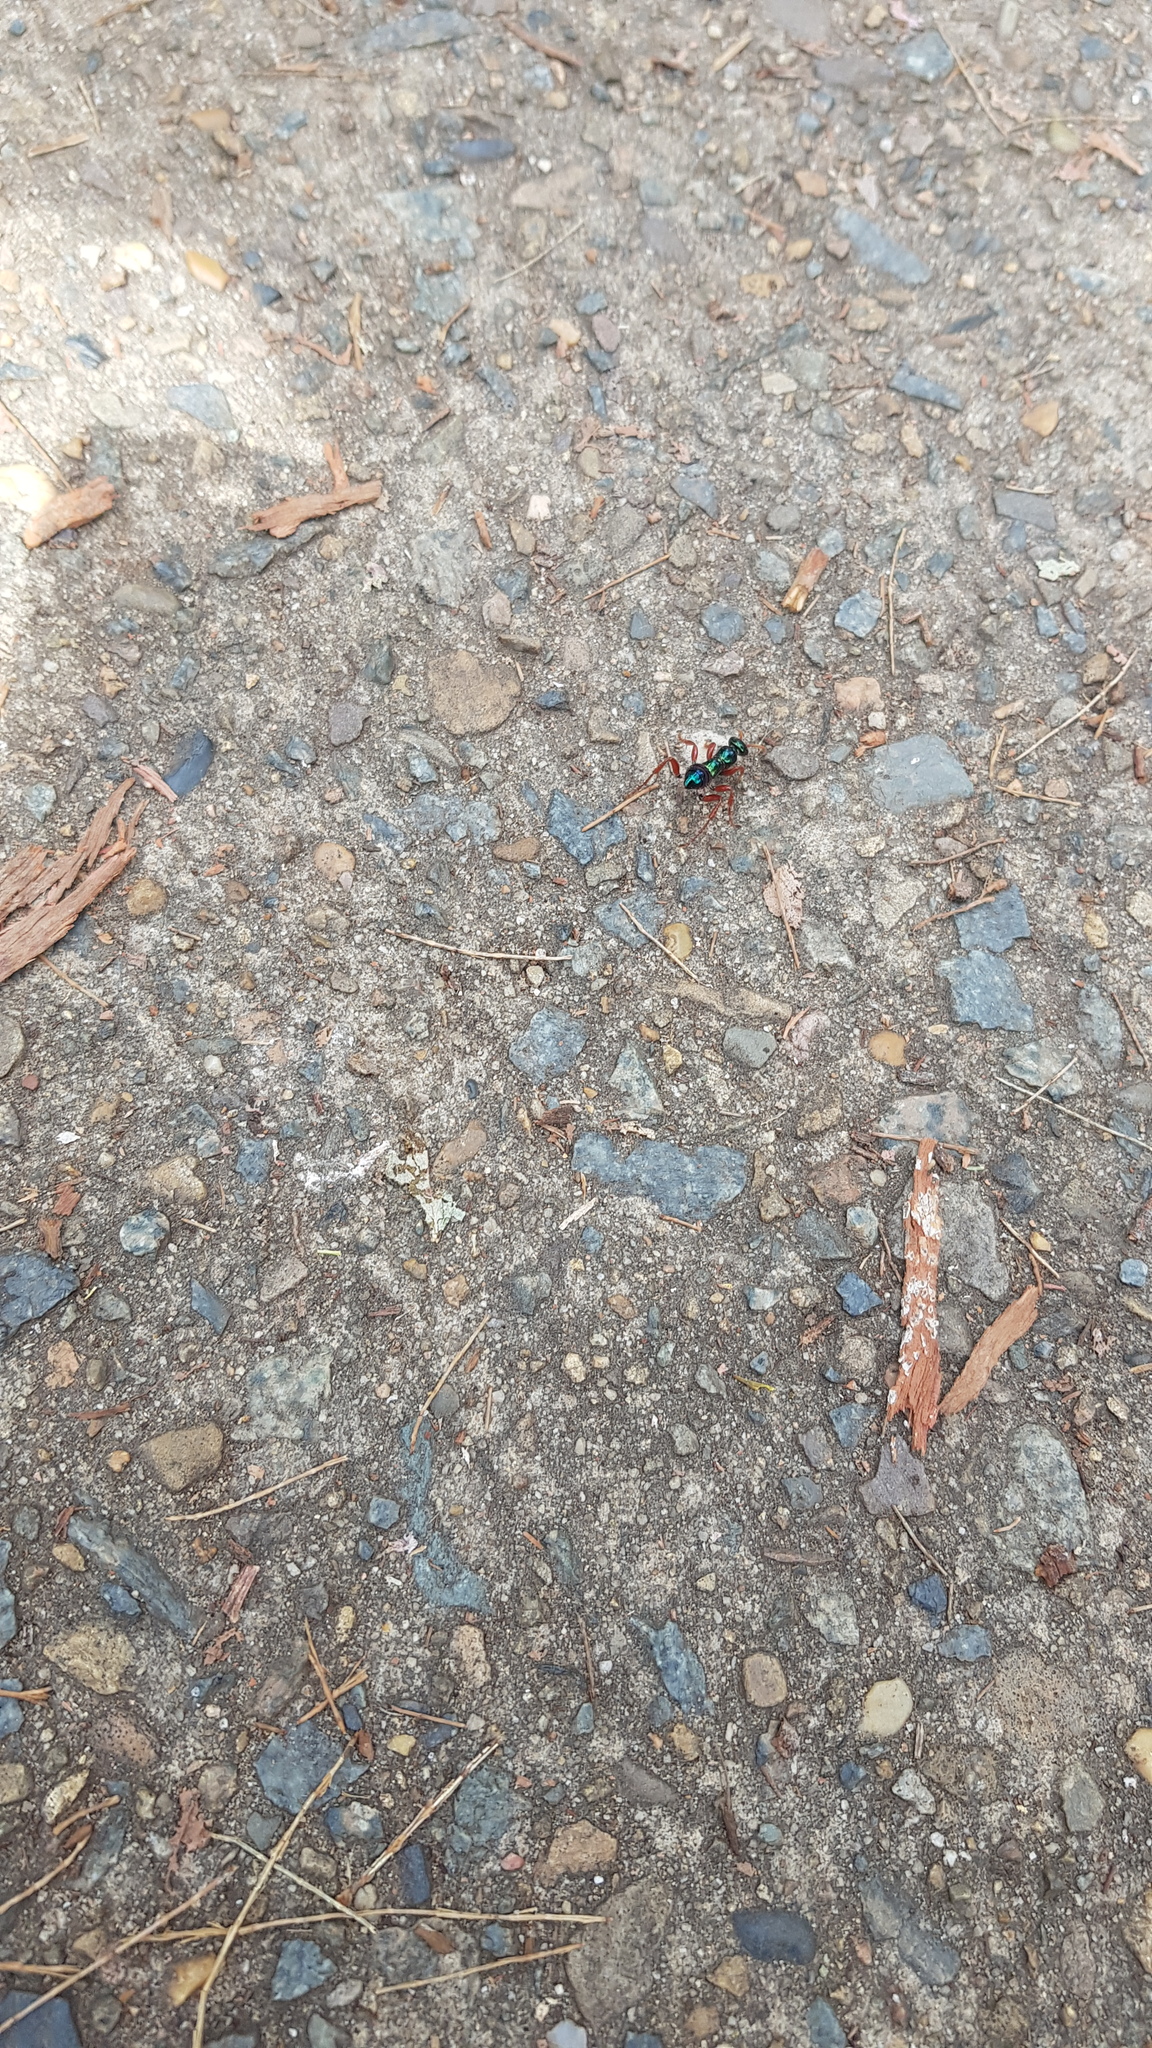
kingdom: Animalia
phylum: Arthropoda
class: Insecta
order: Hymenoptera
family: Tiphiidae
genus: Diamma
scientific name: Diamma
